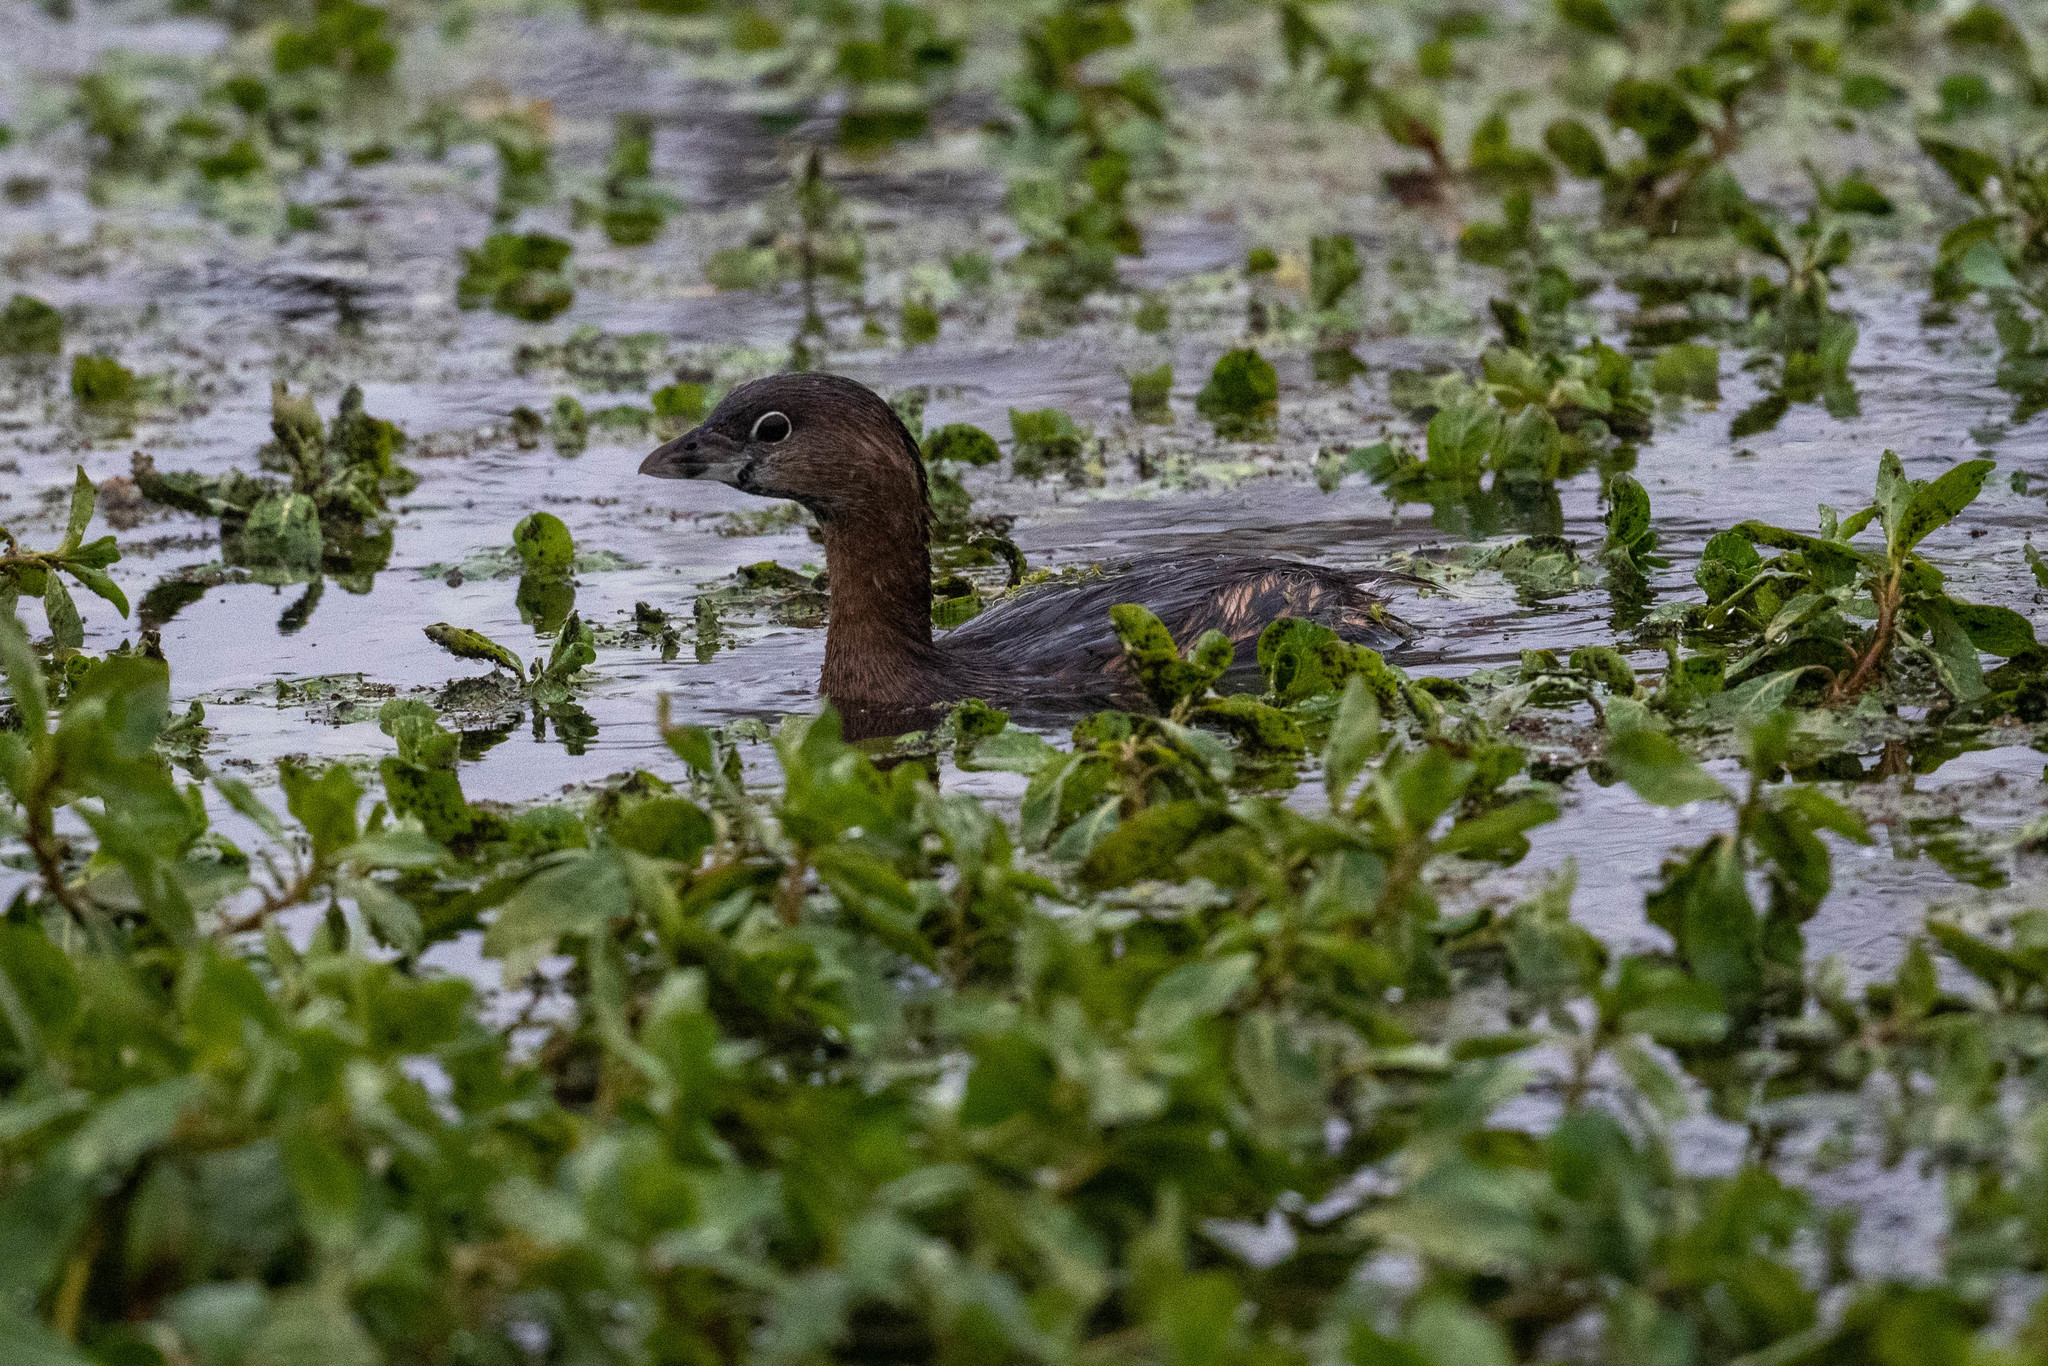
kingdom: Animalia
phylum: Chordata
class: Aves
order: Podicipediformes
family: Podicipedidae
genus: Podilymbus
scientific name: Podilymbus podiceps
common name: Pied-billed grebe
